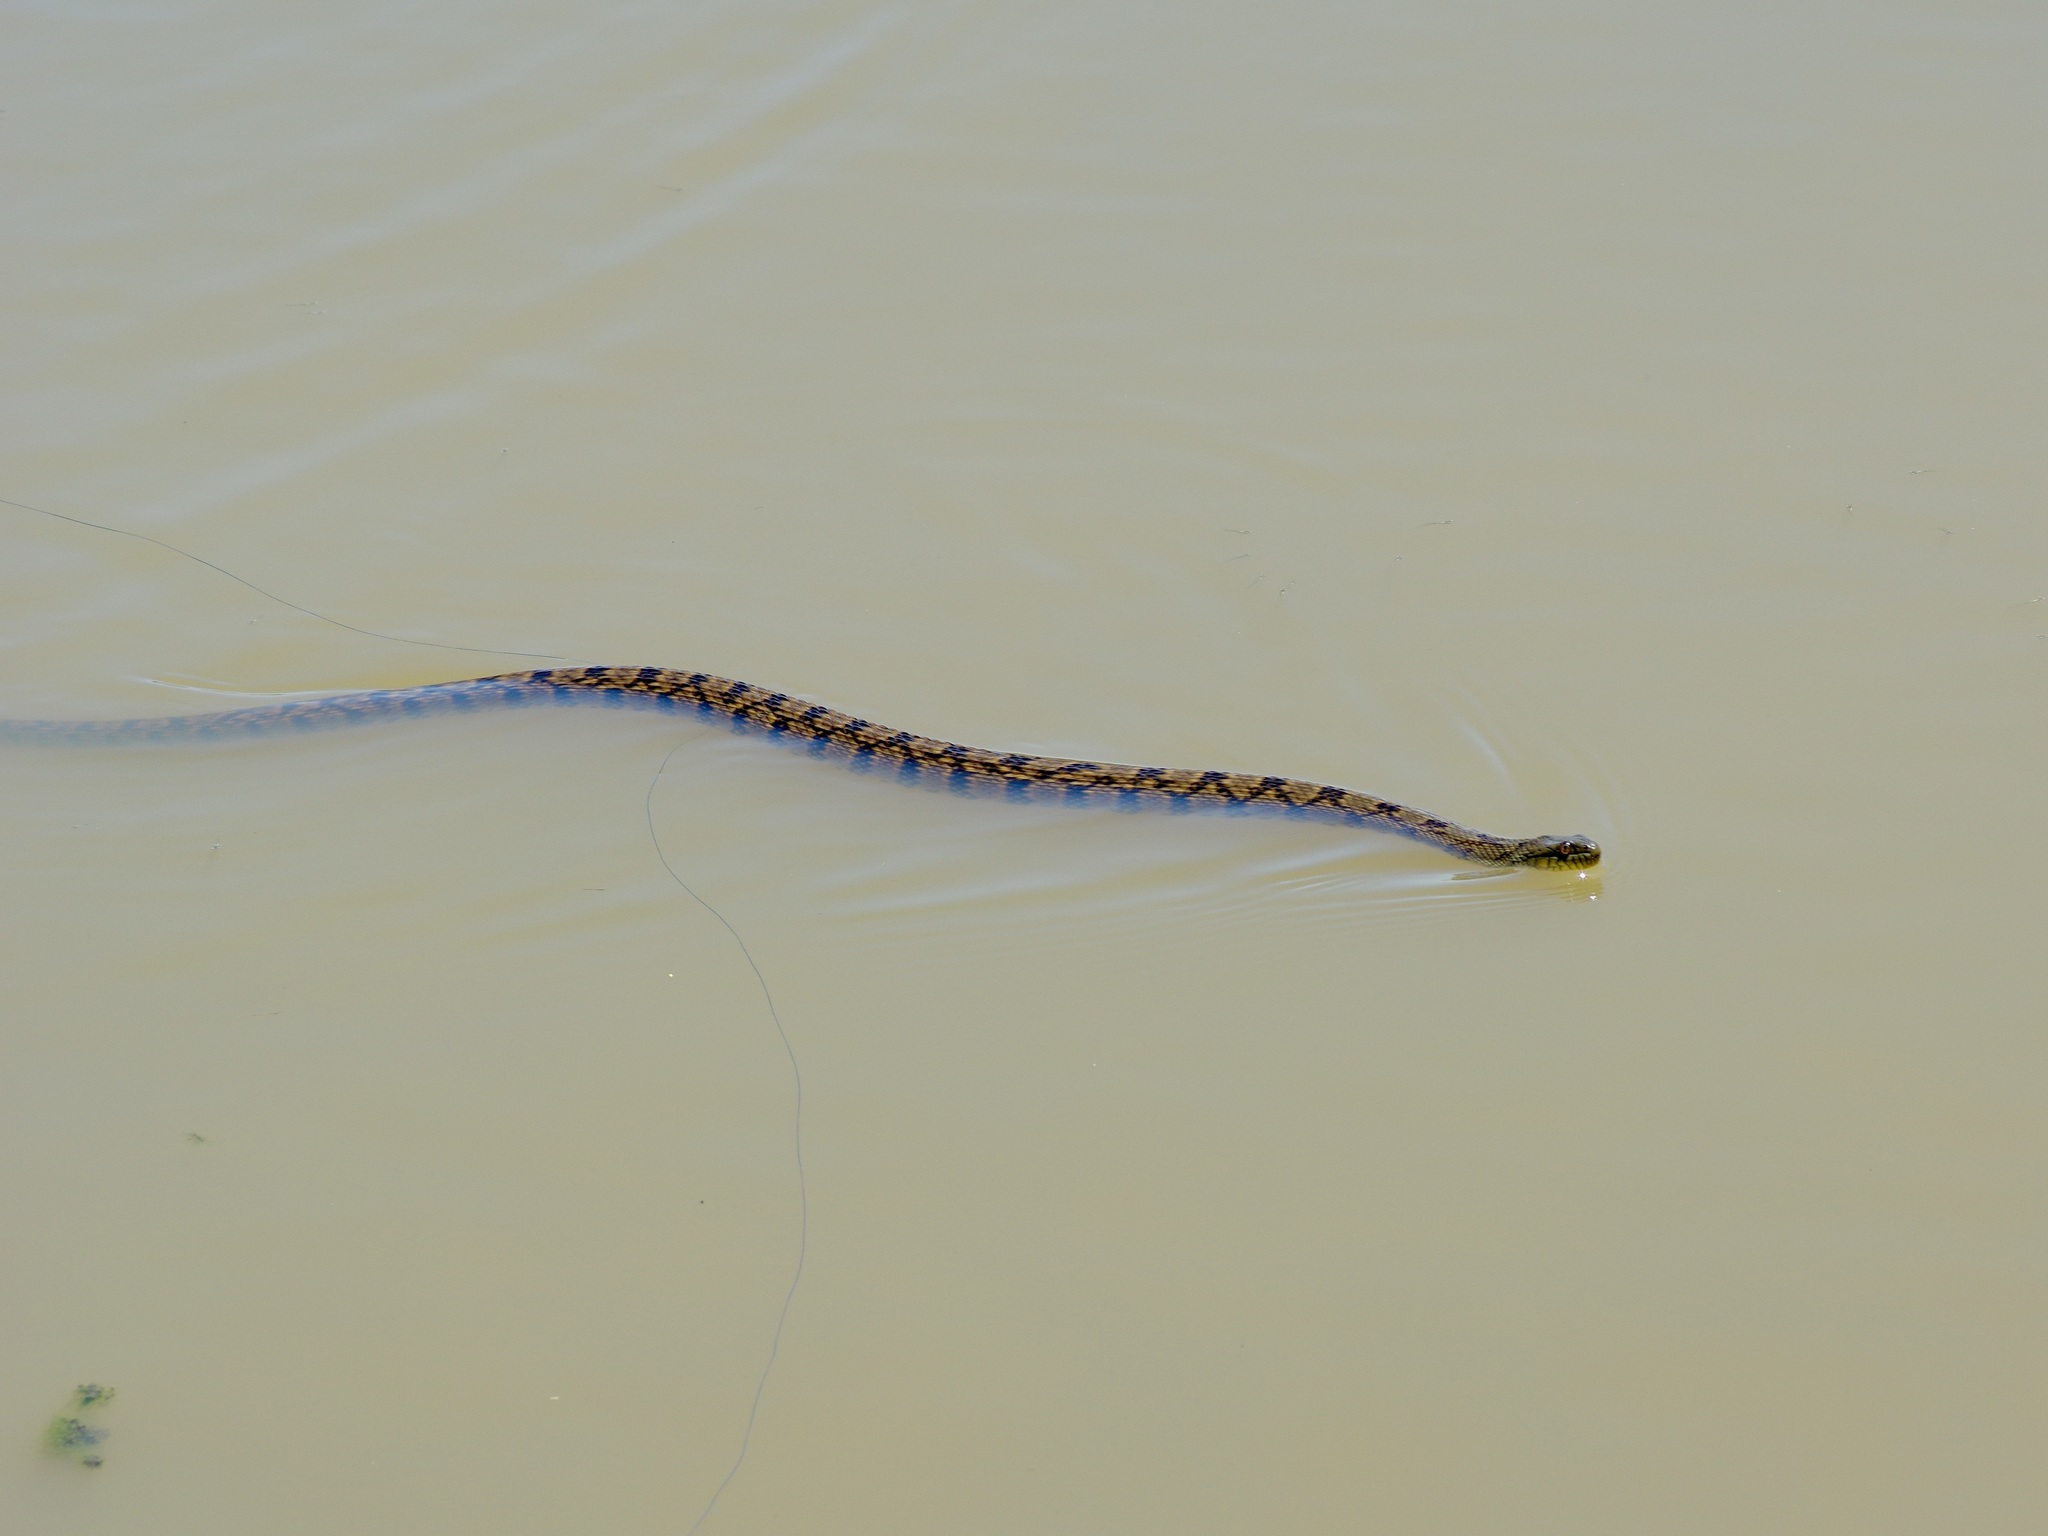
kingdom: Animalia
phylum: Chordata
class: Squamata
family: Colubridae
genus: Nerodia
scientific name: Nerodia rhombifer
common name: Diamondback water snake
